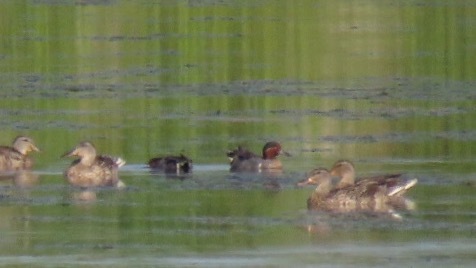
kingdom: Animalia
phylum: Chordata
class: Aves
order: Anseriformes
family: Anatidae
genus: Anas
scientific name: Anas crecca
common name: Eurasian teal
